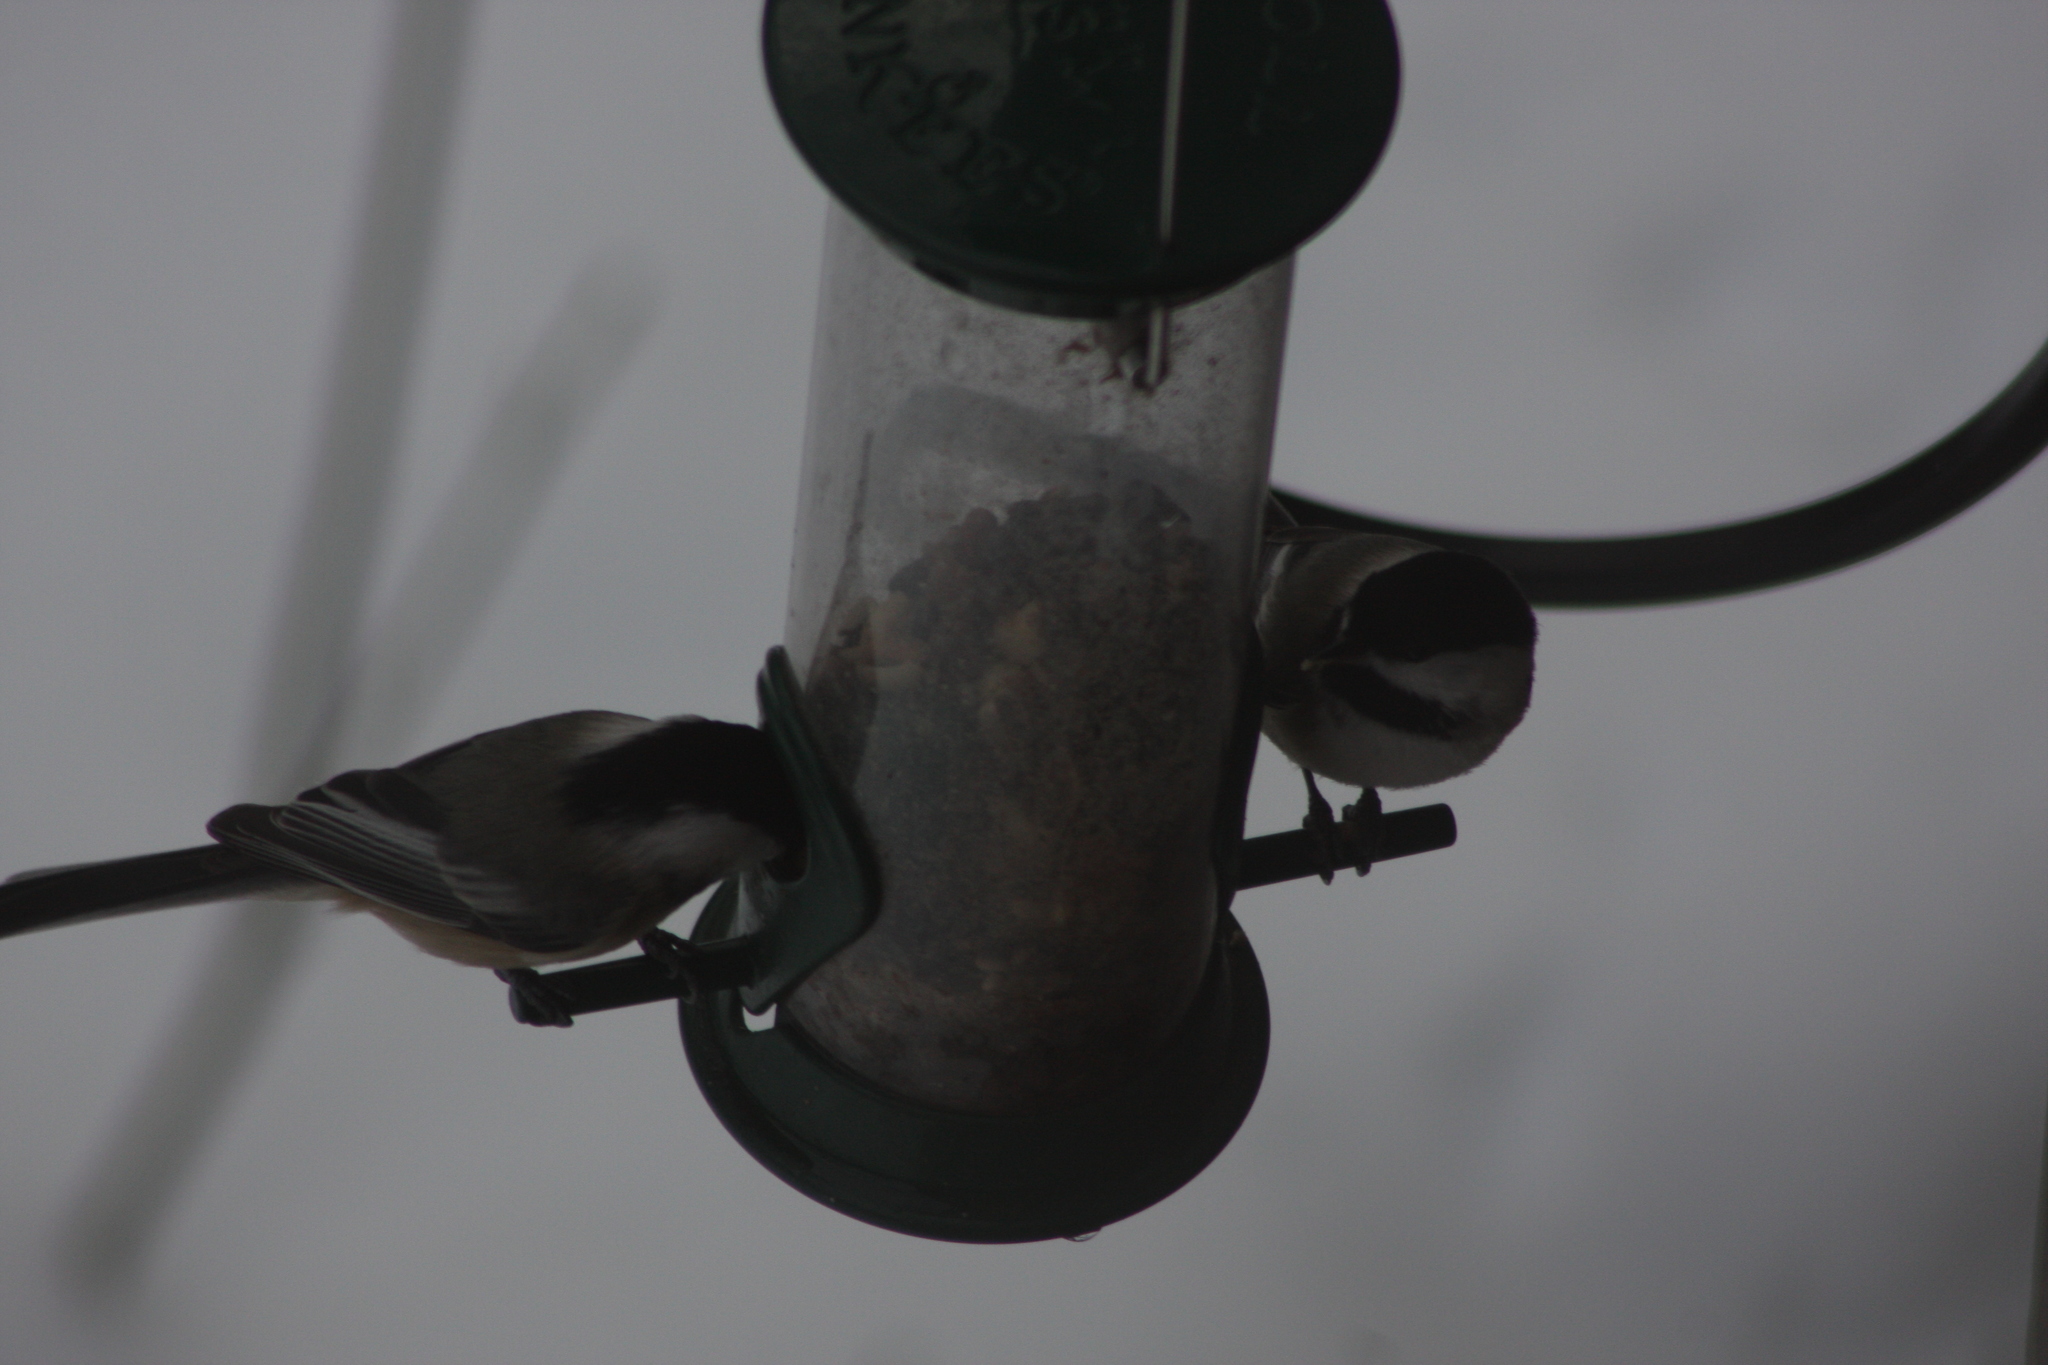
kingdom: Animalia
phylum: Chordata
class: Aves
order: Passeriformes
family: Paridae
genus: Poecile
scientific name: Poecile atricapillus
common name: Black-capped chickadee
